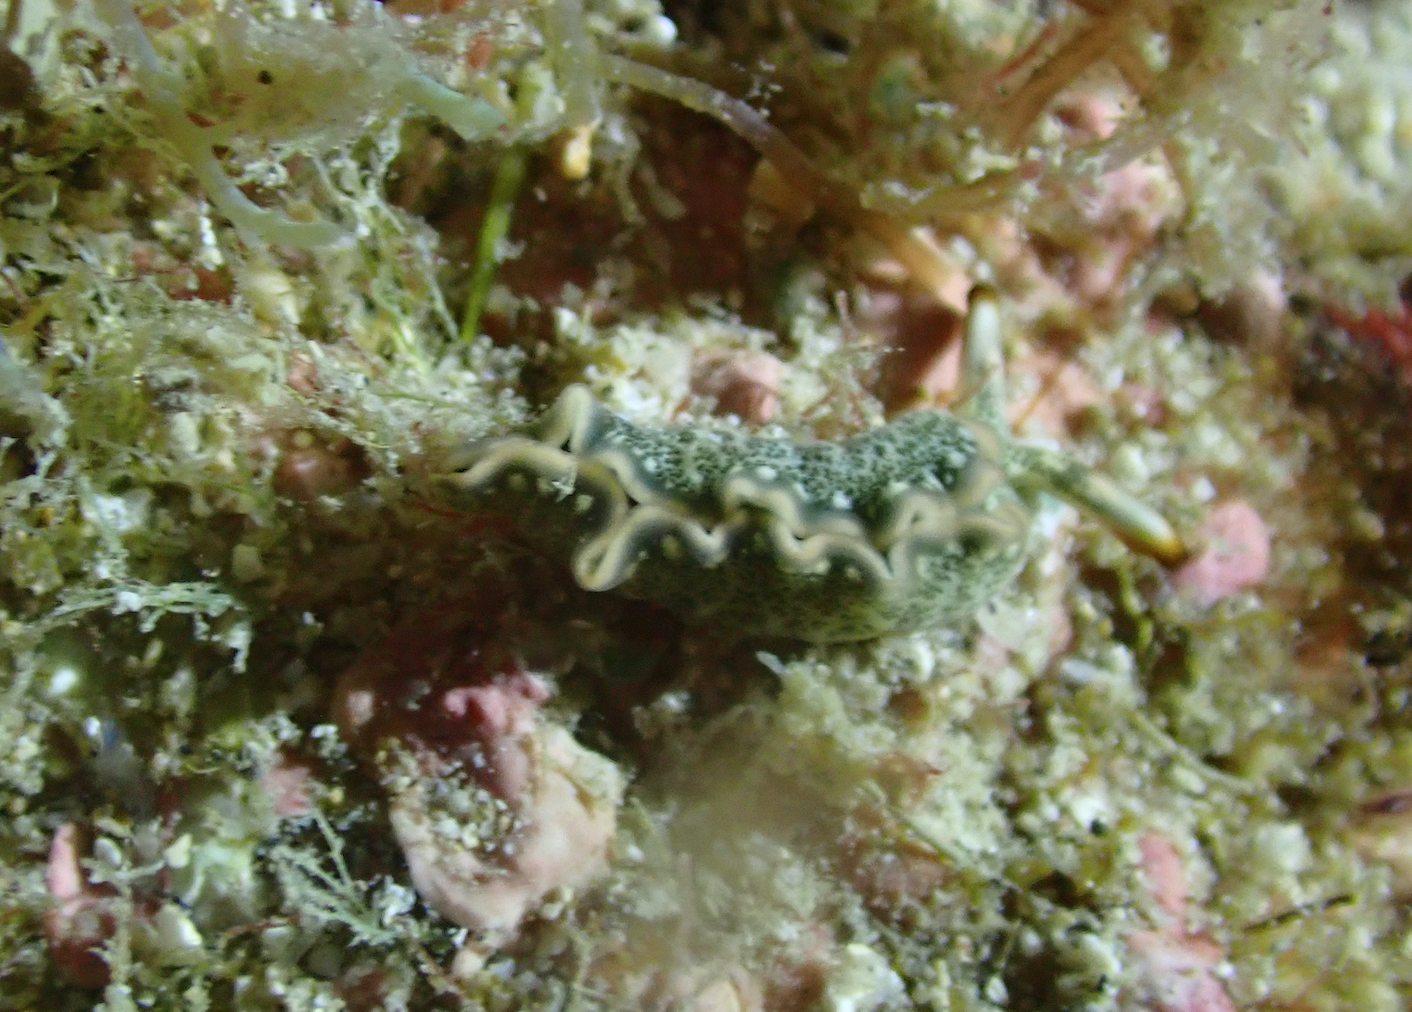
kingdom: Animalia
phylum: Mollusca
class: Gastropoda
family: Plakobranchidae
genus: Thuridilla
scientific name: Thuridilla carlsoni
